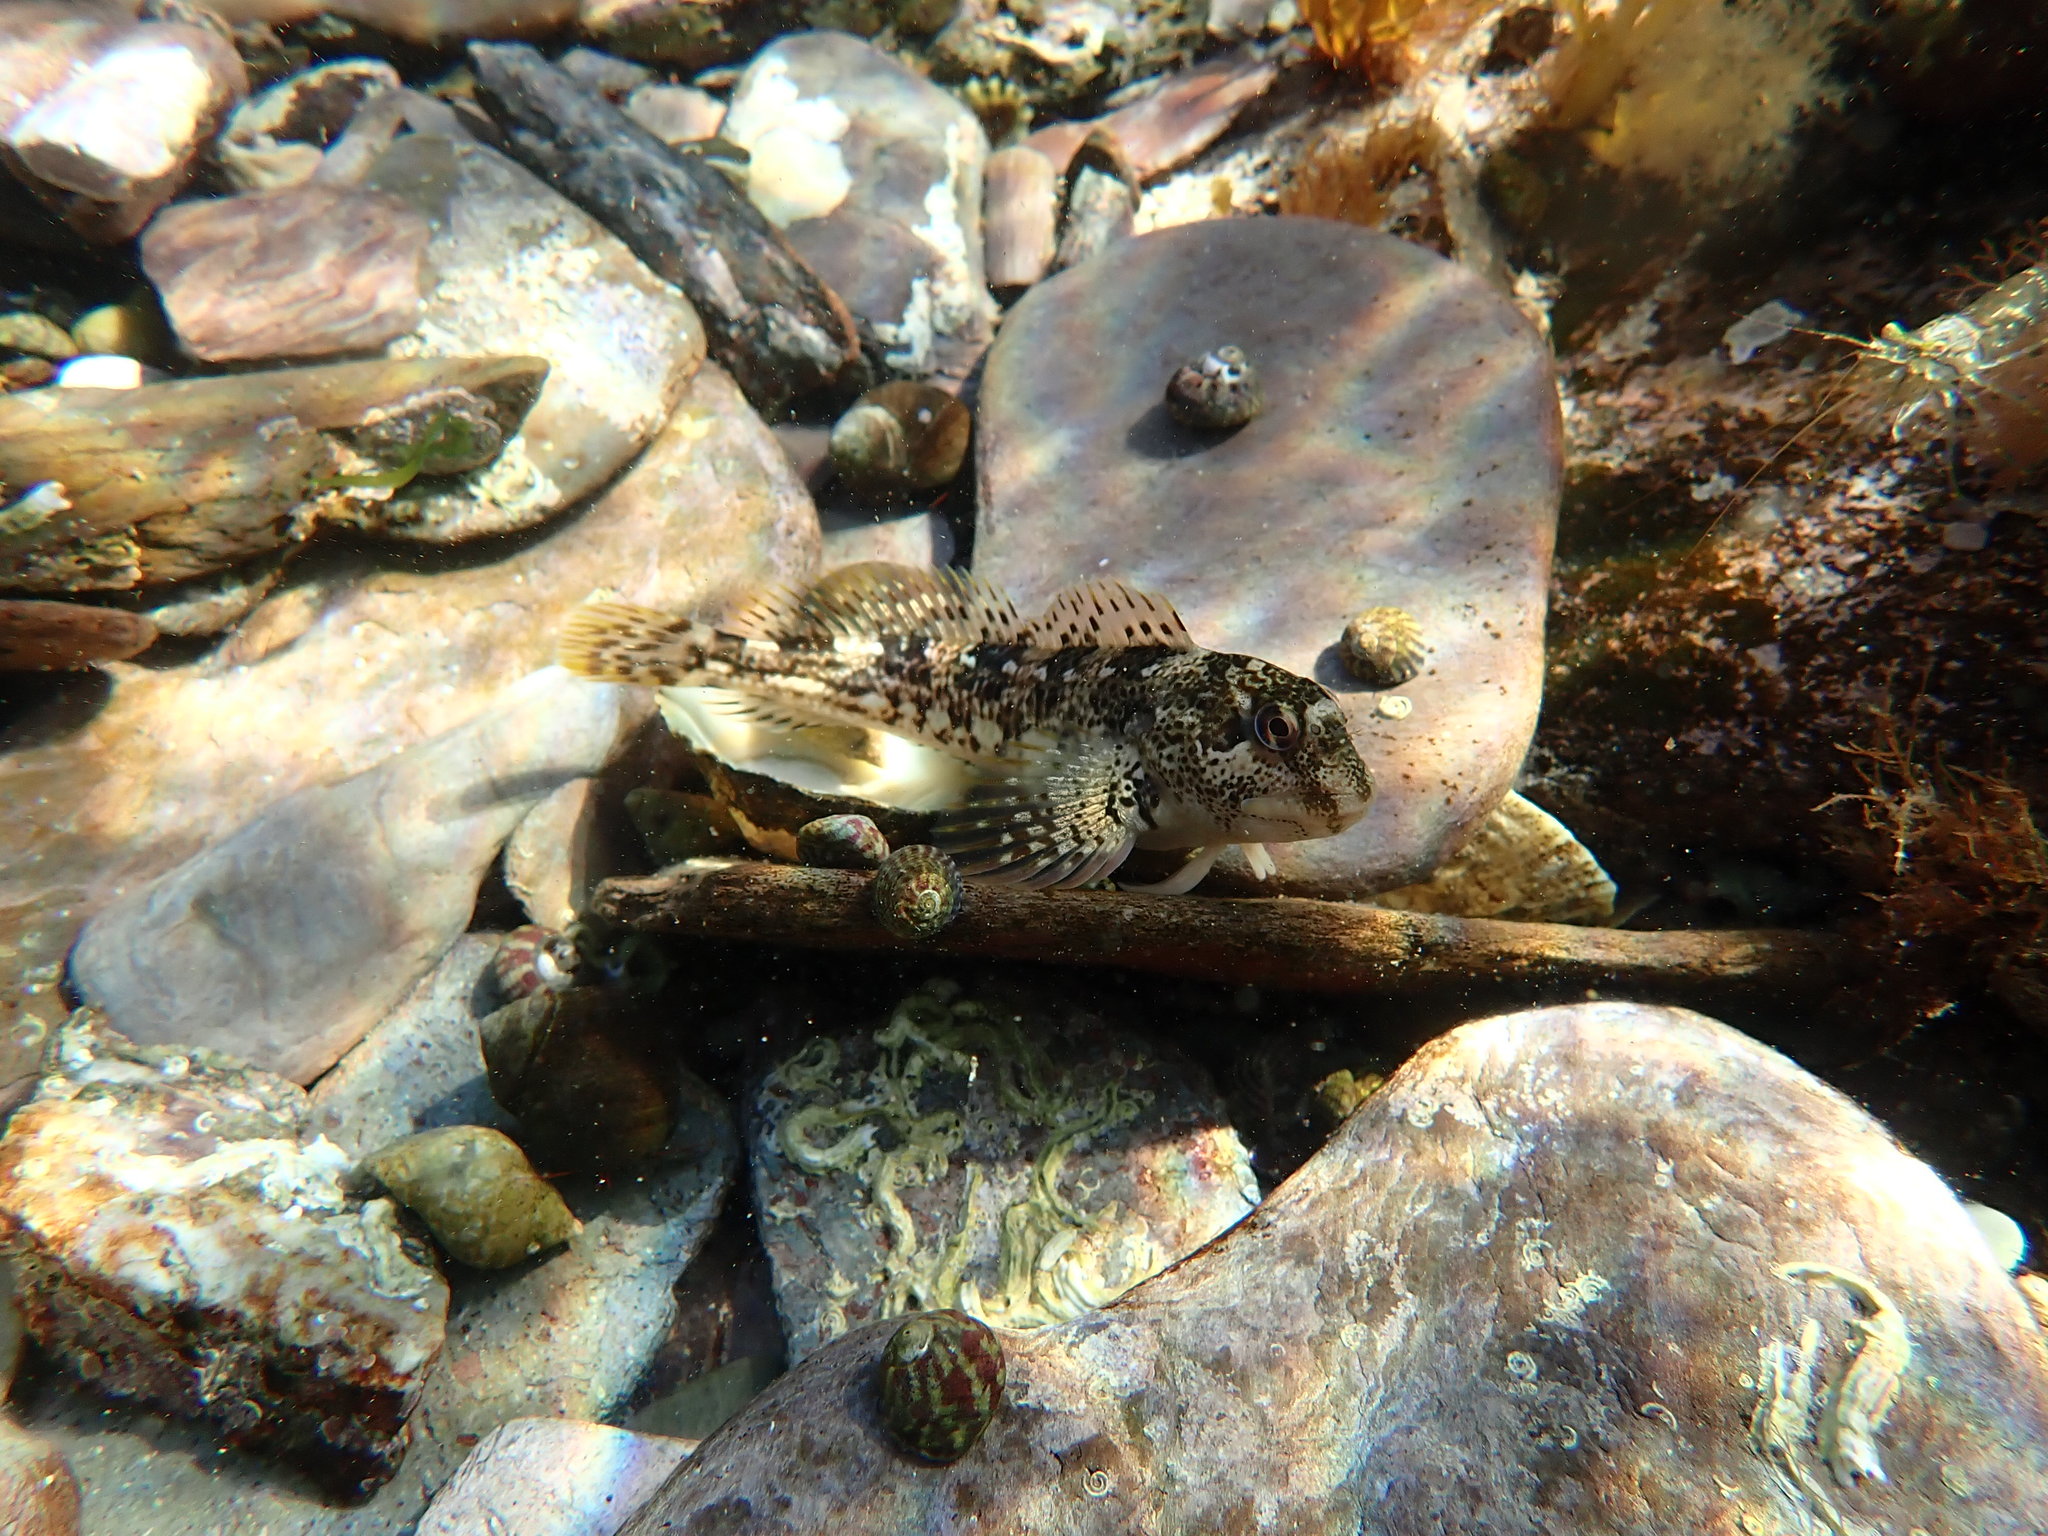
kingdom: Animalia
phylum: Chordata
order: Perciformes
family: Blenniidae
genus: Lipophrys
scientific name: Lipophrys pholis
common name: Shanny
